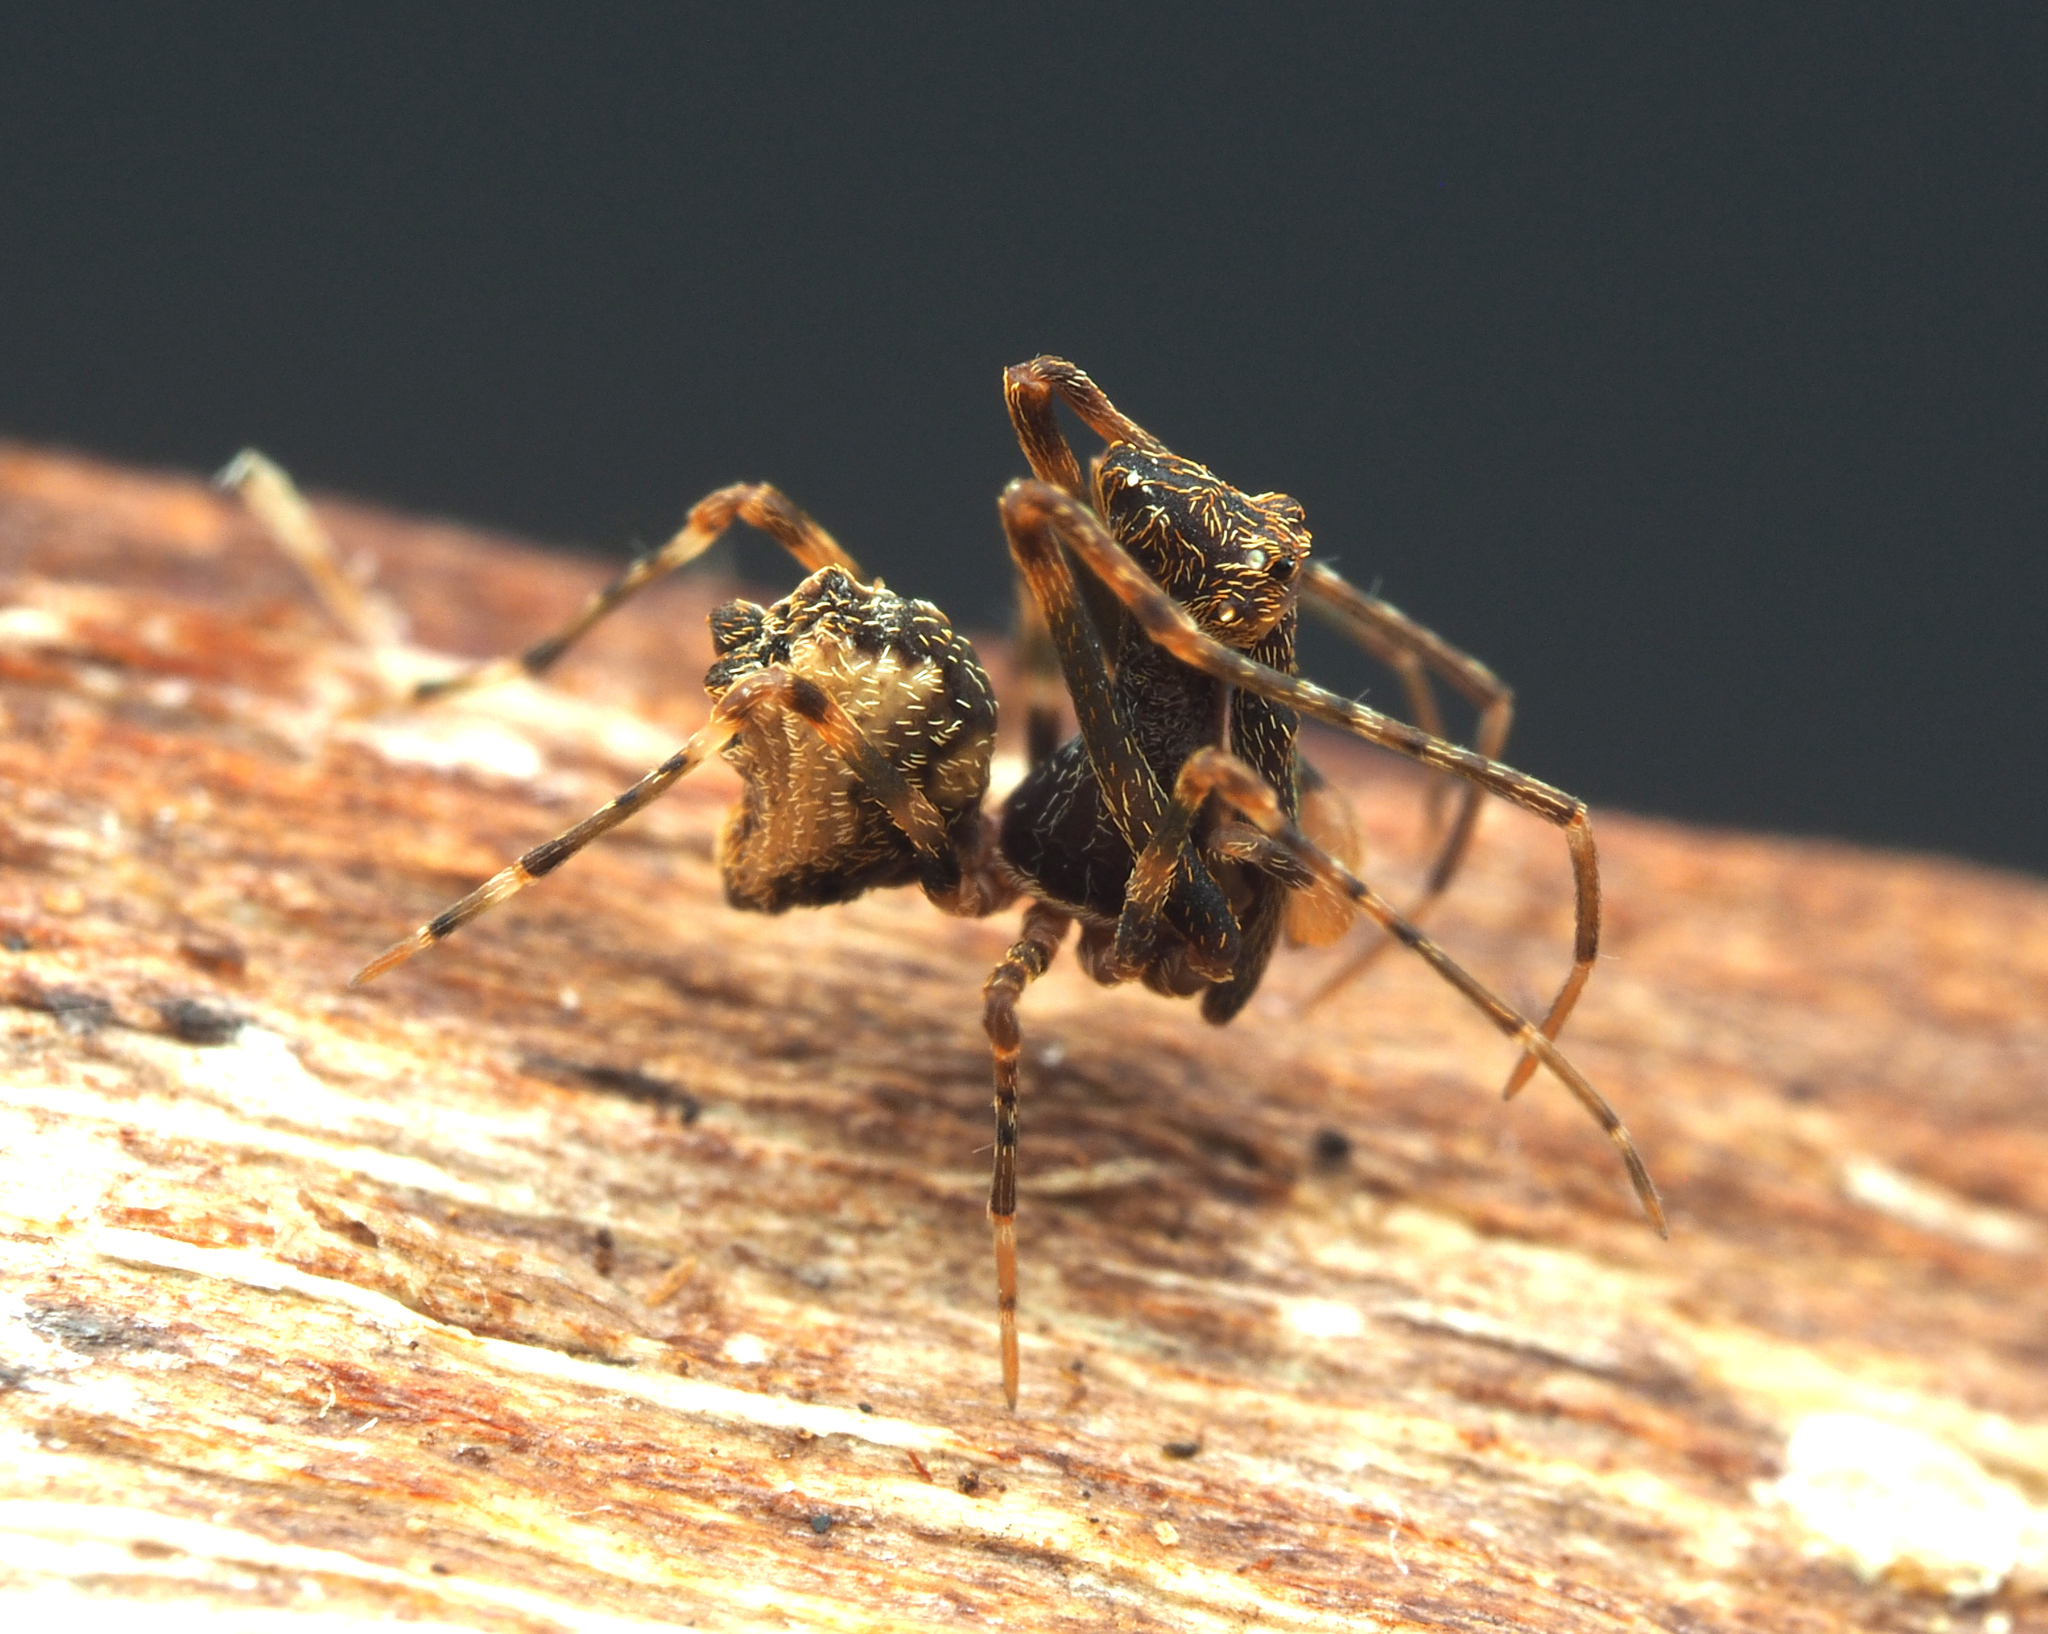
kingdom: Animalia
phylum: Arthropoda
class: Arachnida
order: Araneae
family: Archaeidae
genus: Austrarchaea
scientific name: Austrarchaea raveni
